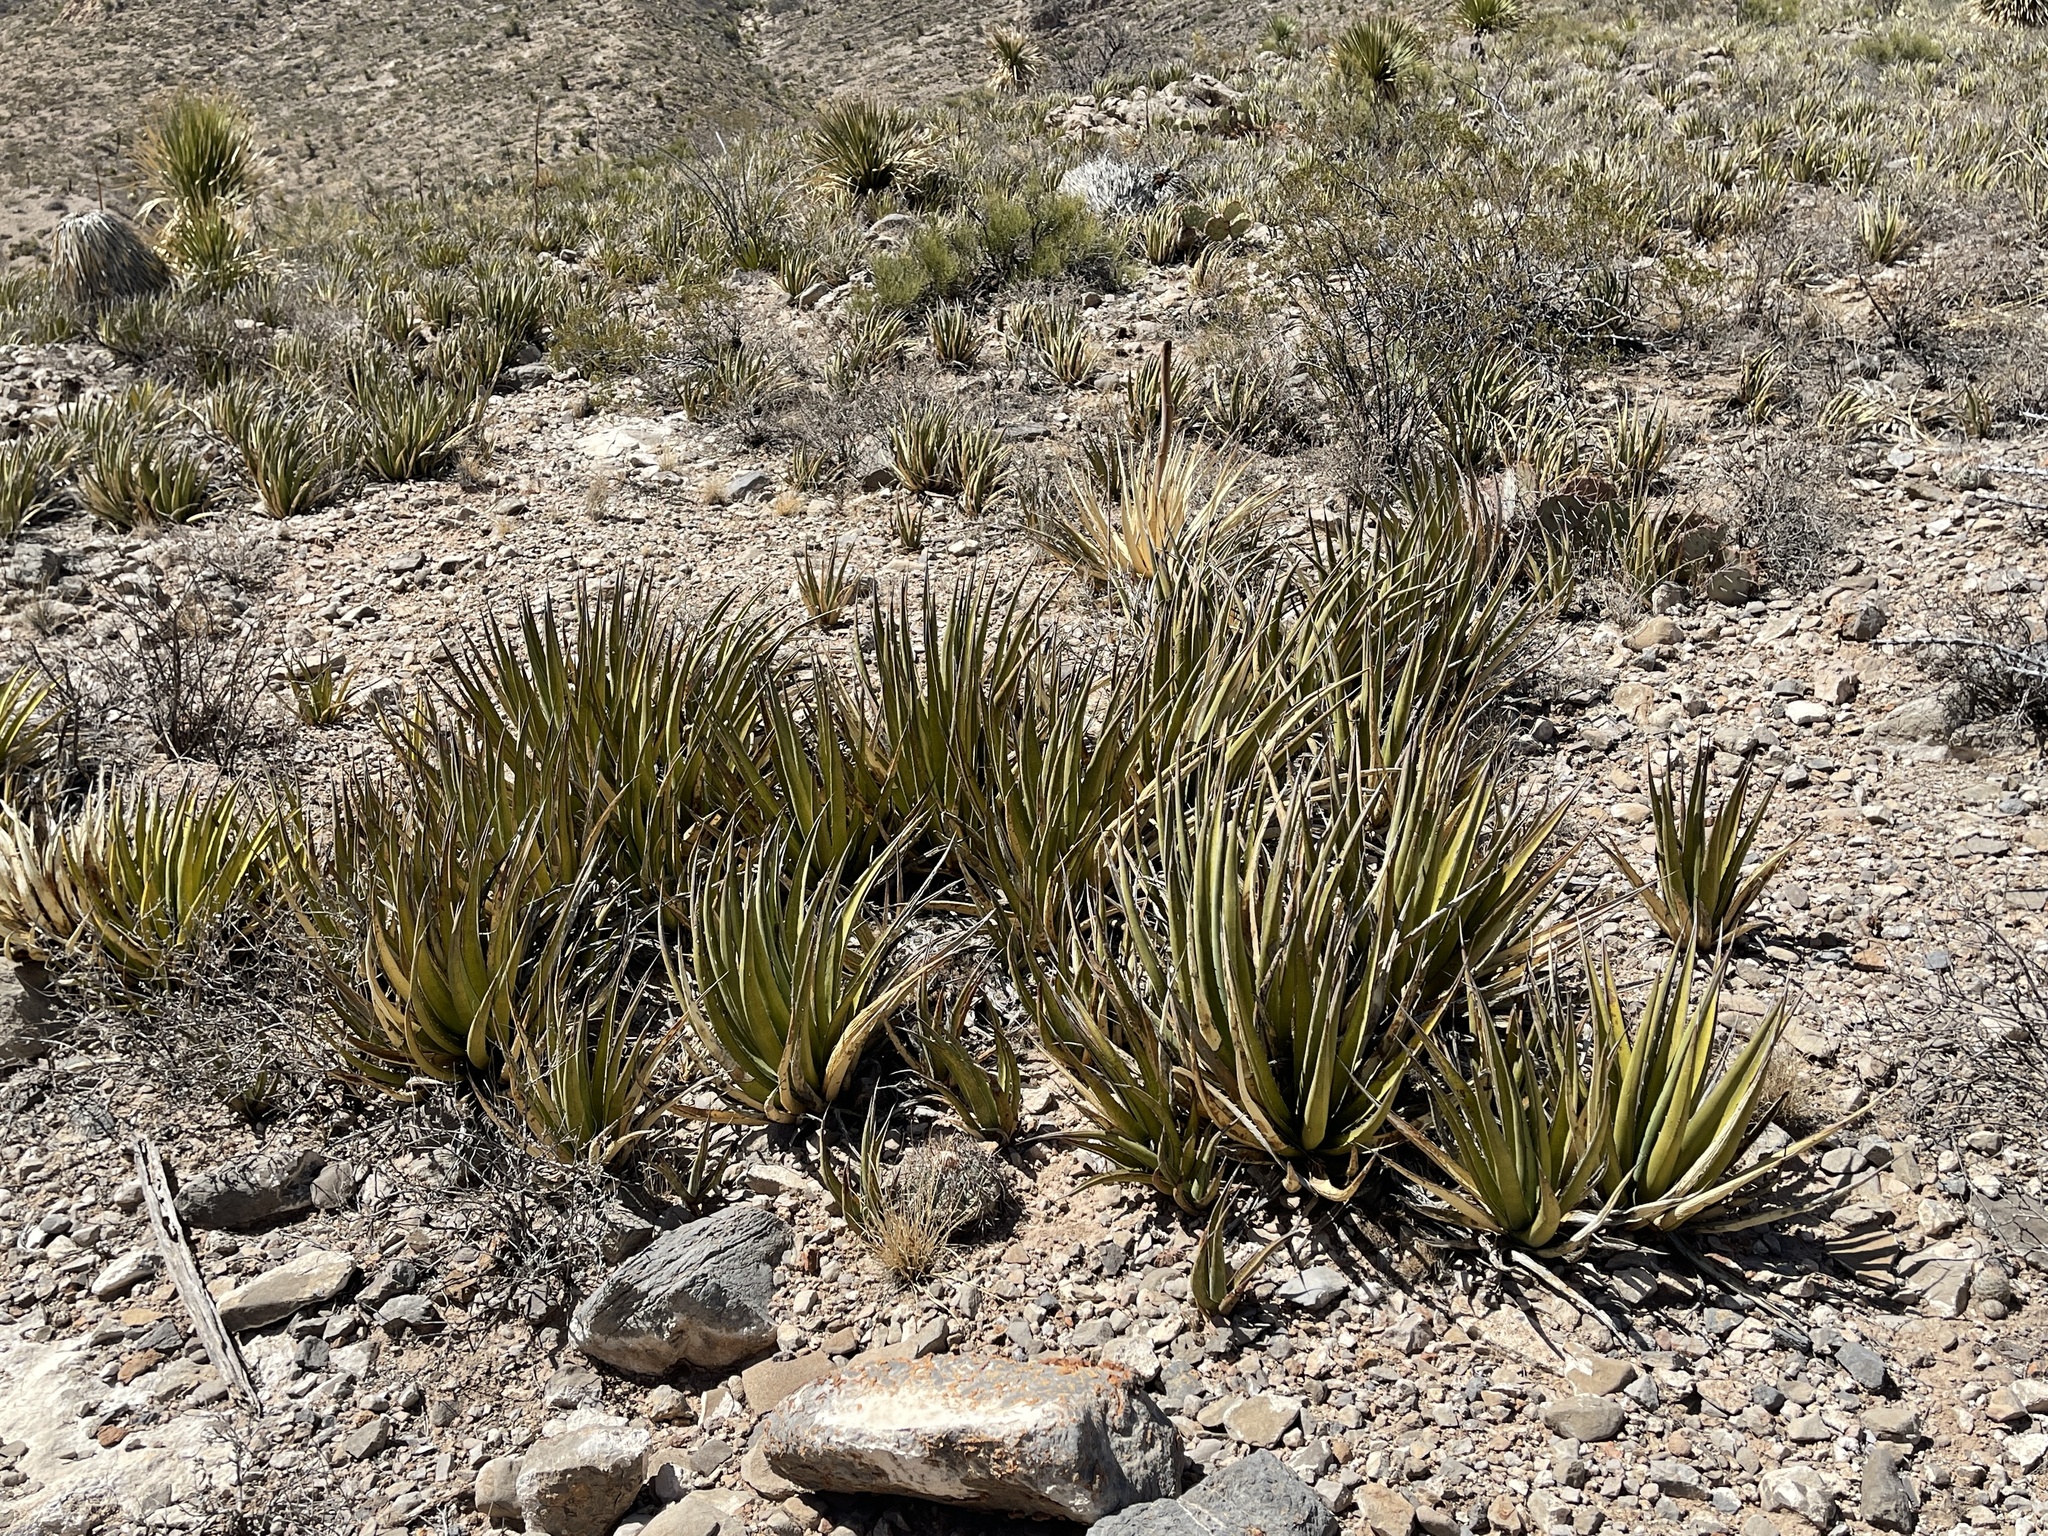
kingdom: Plantae
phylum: Tracheophyta
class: Liliopsida
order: Asparagales
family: Asparagaceae
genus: Agave
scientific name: Agave lechuguilla
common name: Lecheguilla agave
